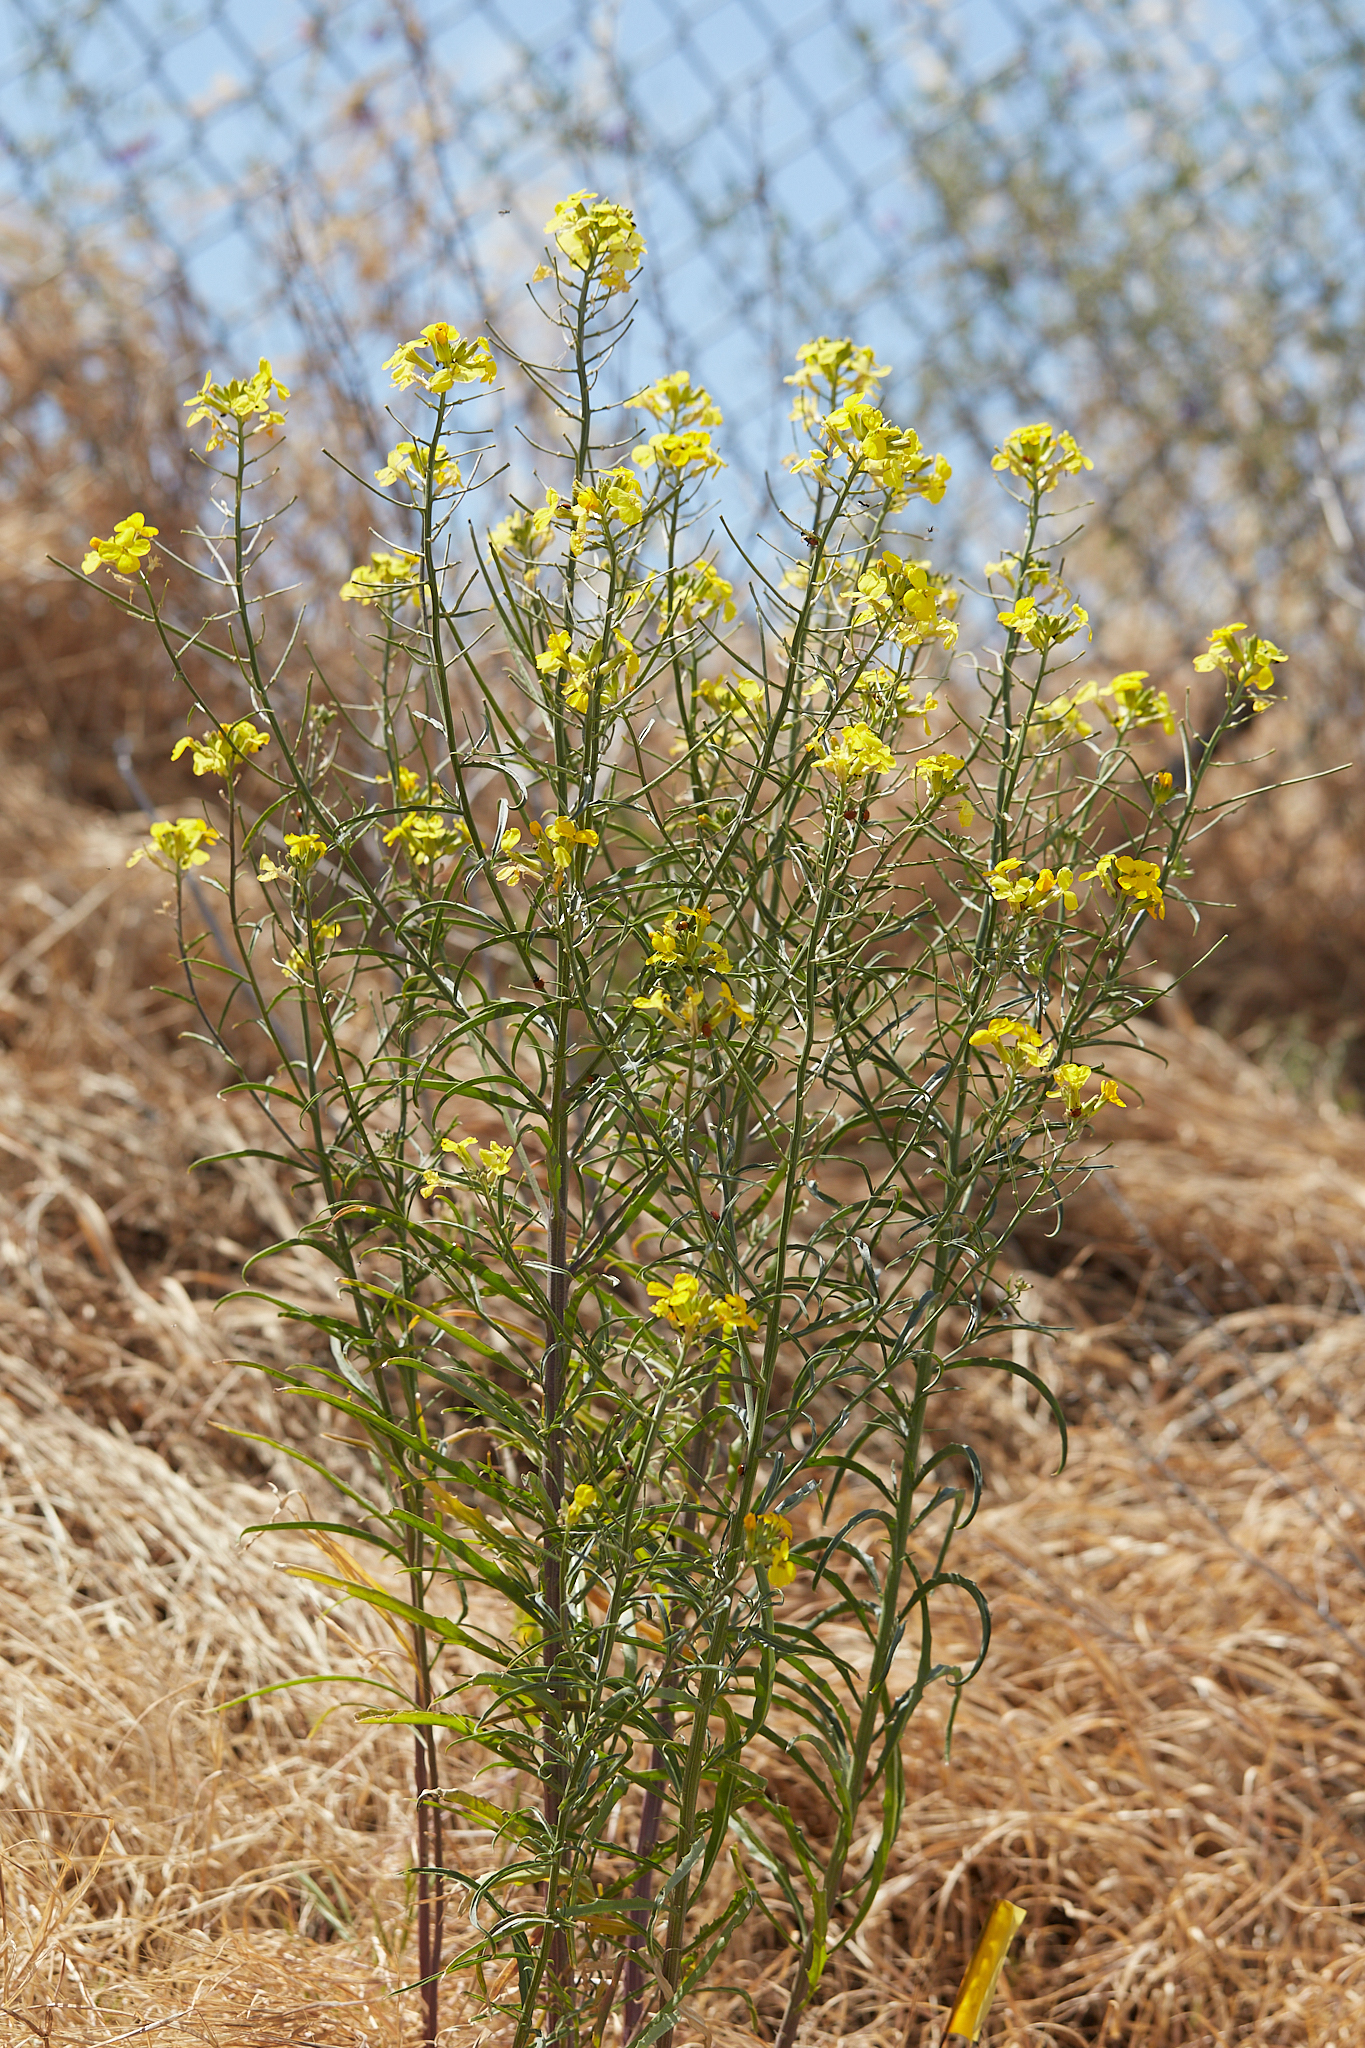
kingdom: Plantae
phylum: Tracheophyta
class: Magnoliopsida
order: Brassicales
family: Brassicaceae
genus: Erysimum
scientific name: Erysimum capitatum
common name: Western wallflower
